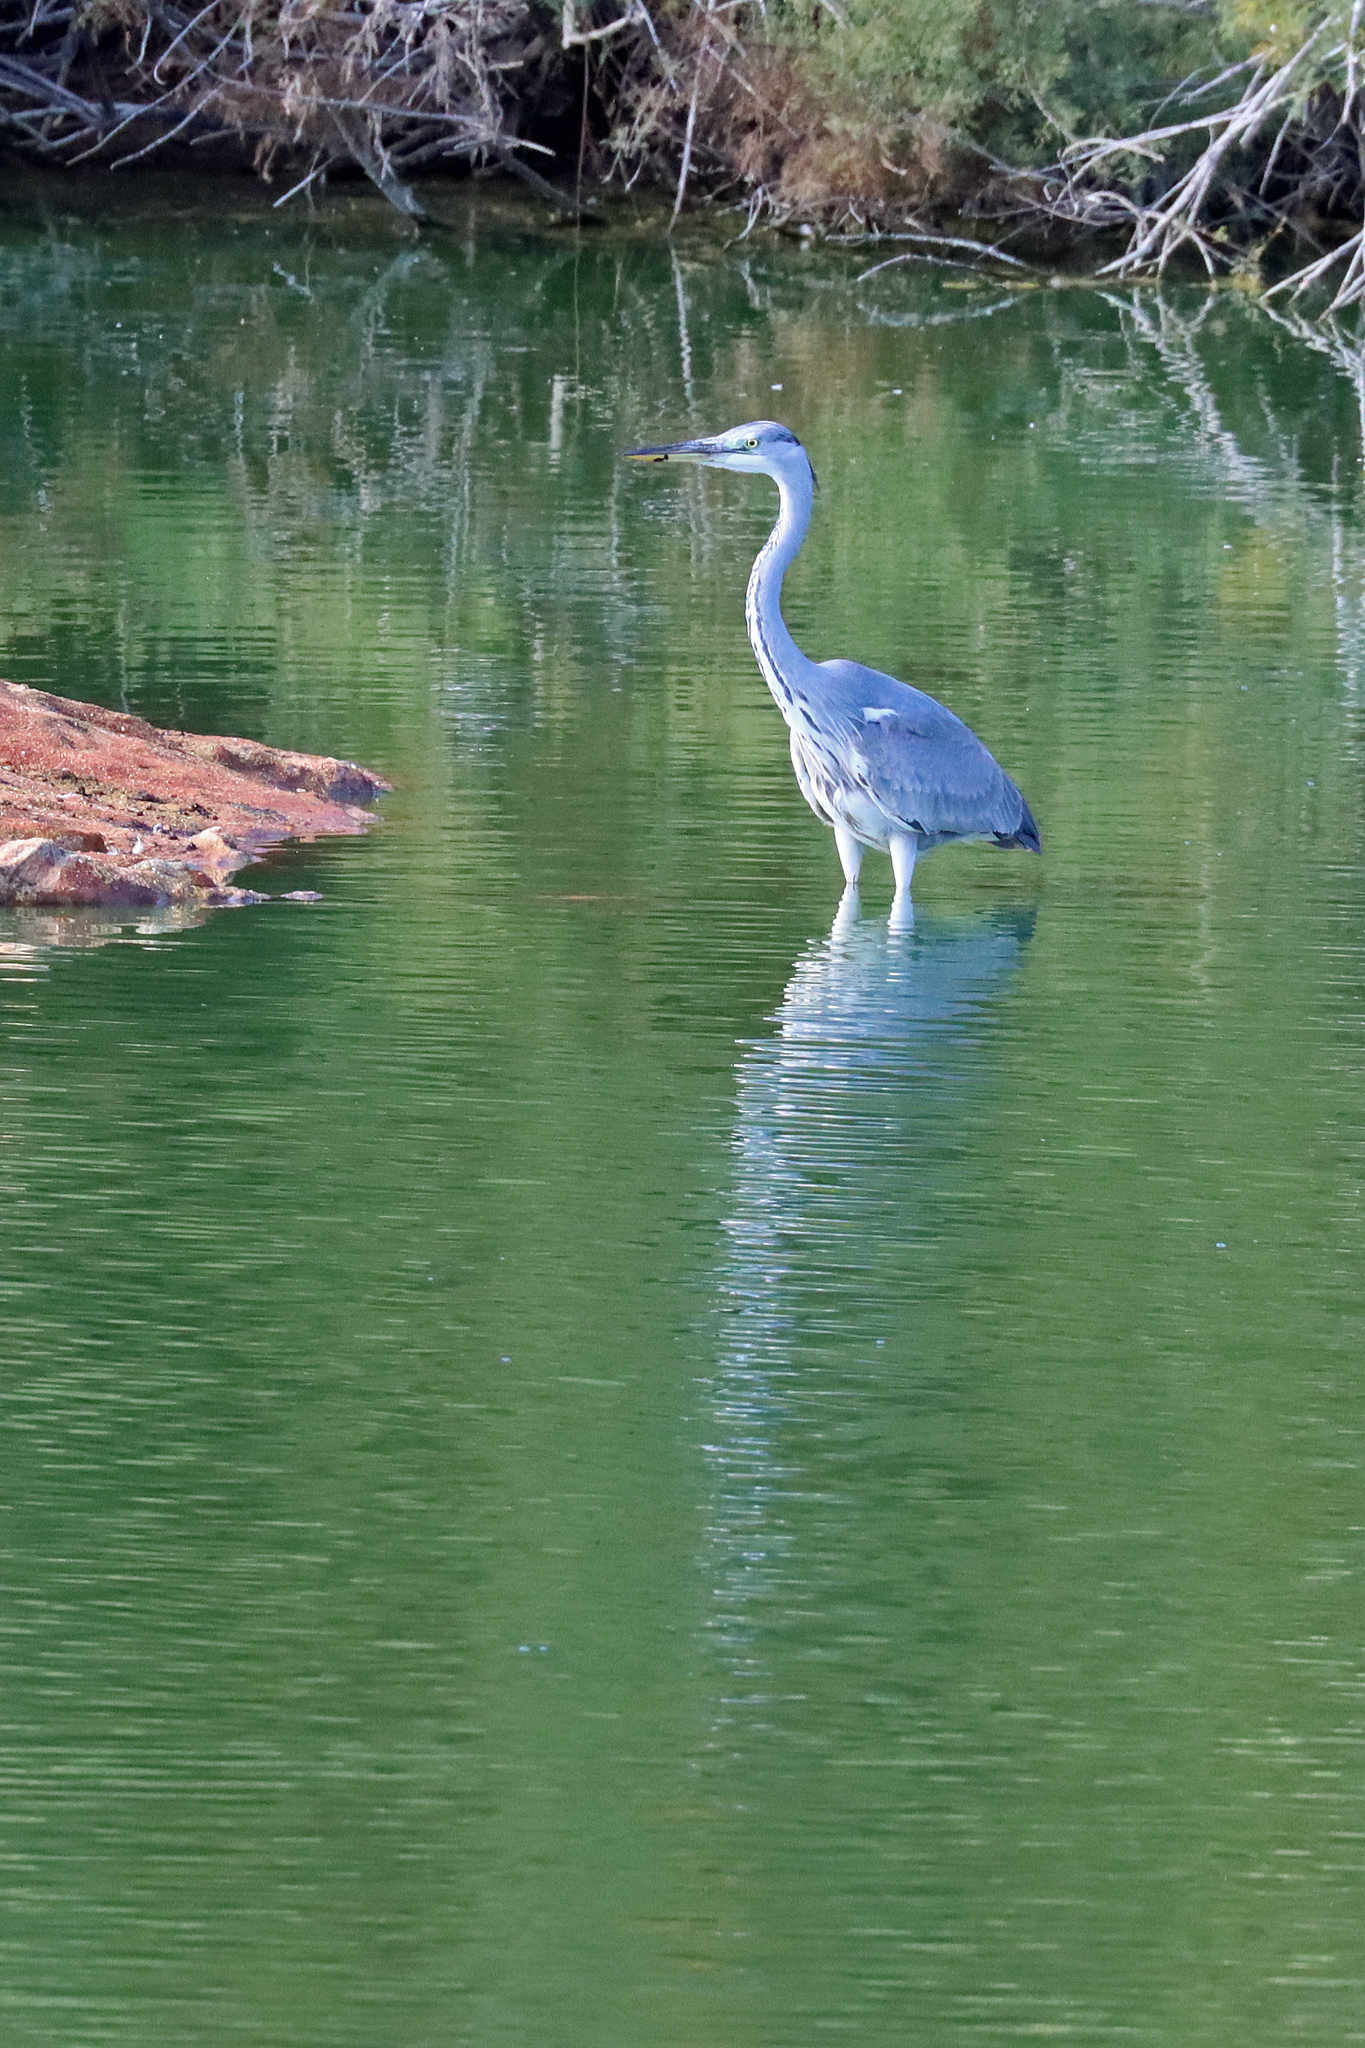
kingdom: Animalia
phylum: Chordata
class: Aves
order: Pelecaniformes
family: Ardeidae
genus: Ardea
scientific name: Ardea cinerea
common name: Grey heron
